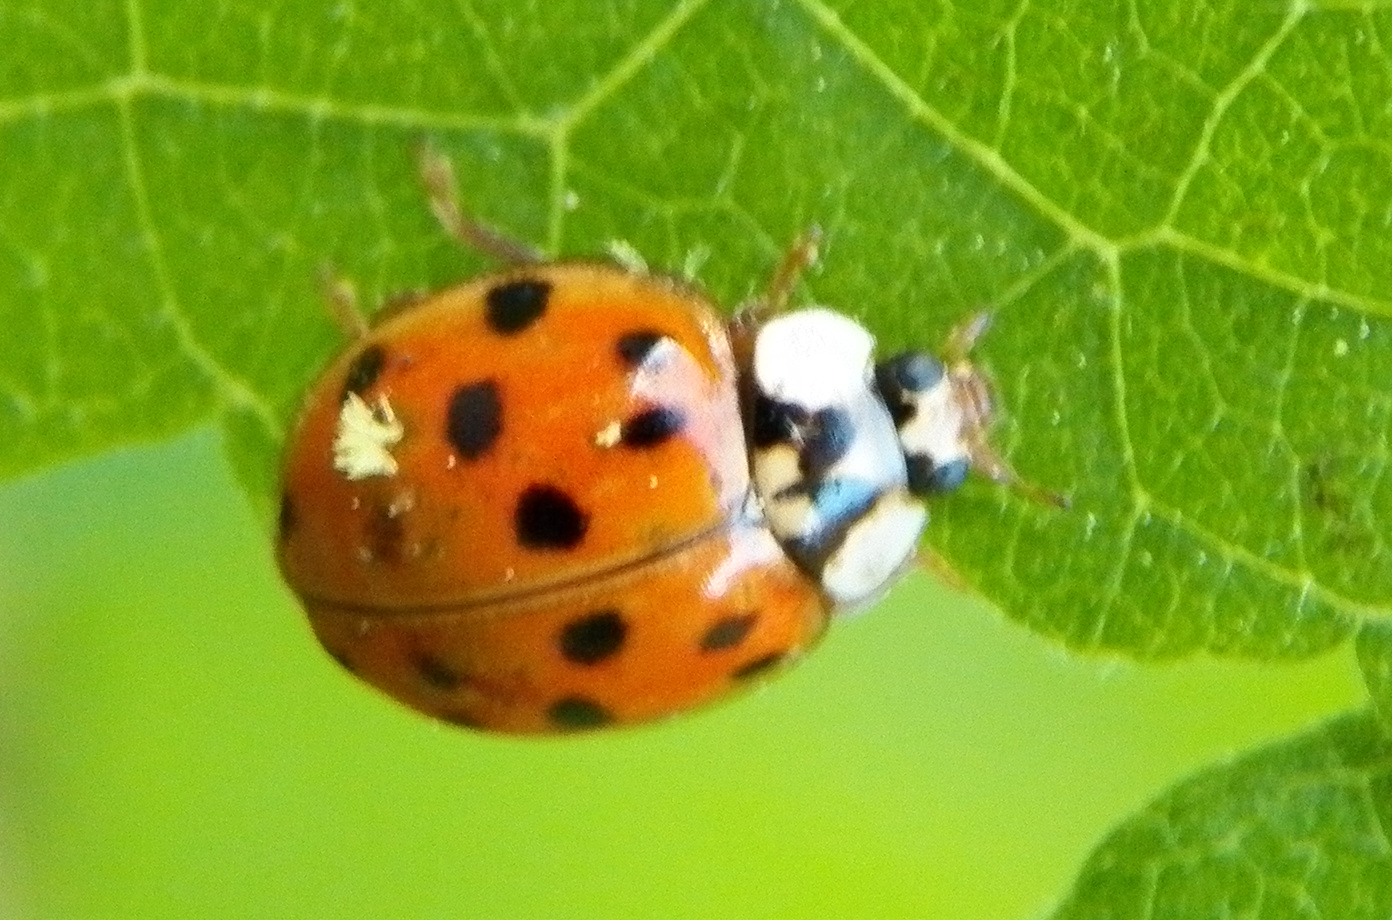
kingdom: Animalia
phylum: Arthropoda
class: Insecta
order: Coleoptera
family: Coccinellidae
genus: Harmonia
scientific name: Harmonia axyridis
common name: Harlequin ladybird
